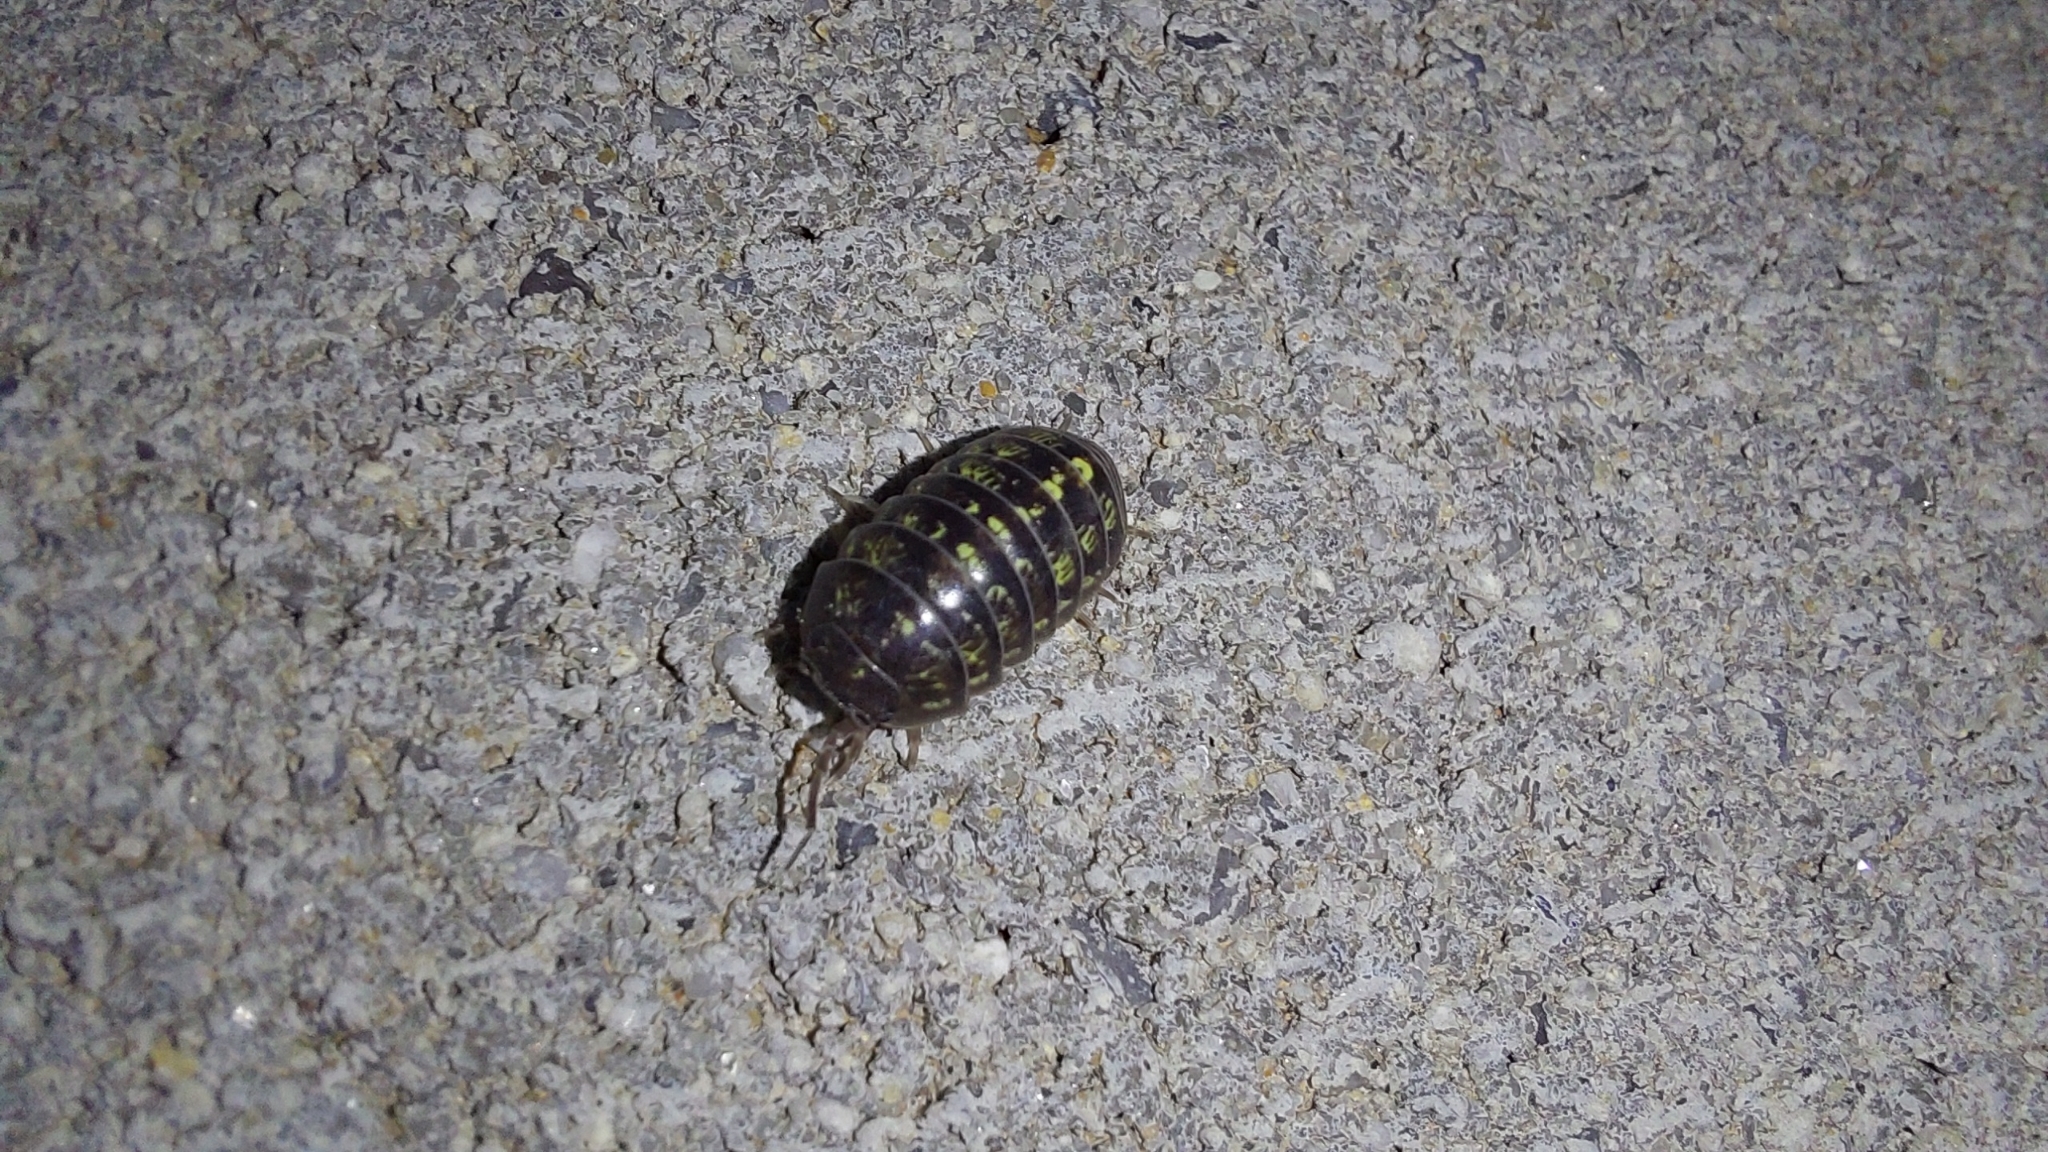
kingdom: Animalia
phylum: Arthropoda
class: Malacostraca
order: Isopoda
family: Armadillidiidae
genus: Armadillidium
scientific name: Armadillidium vulgare
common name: Common pill woodlouse
